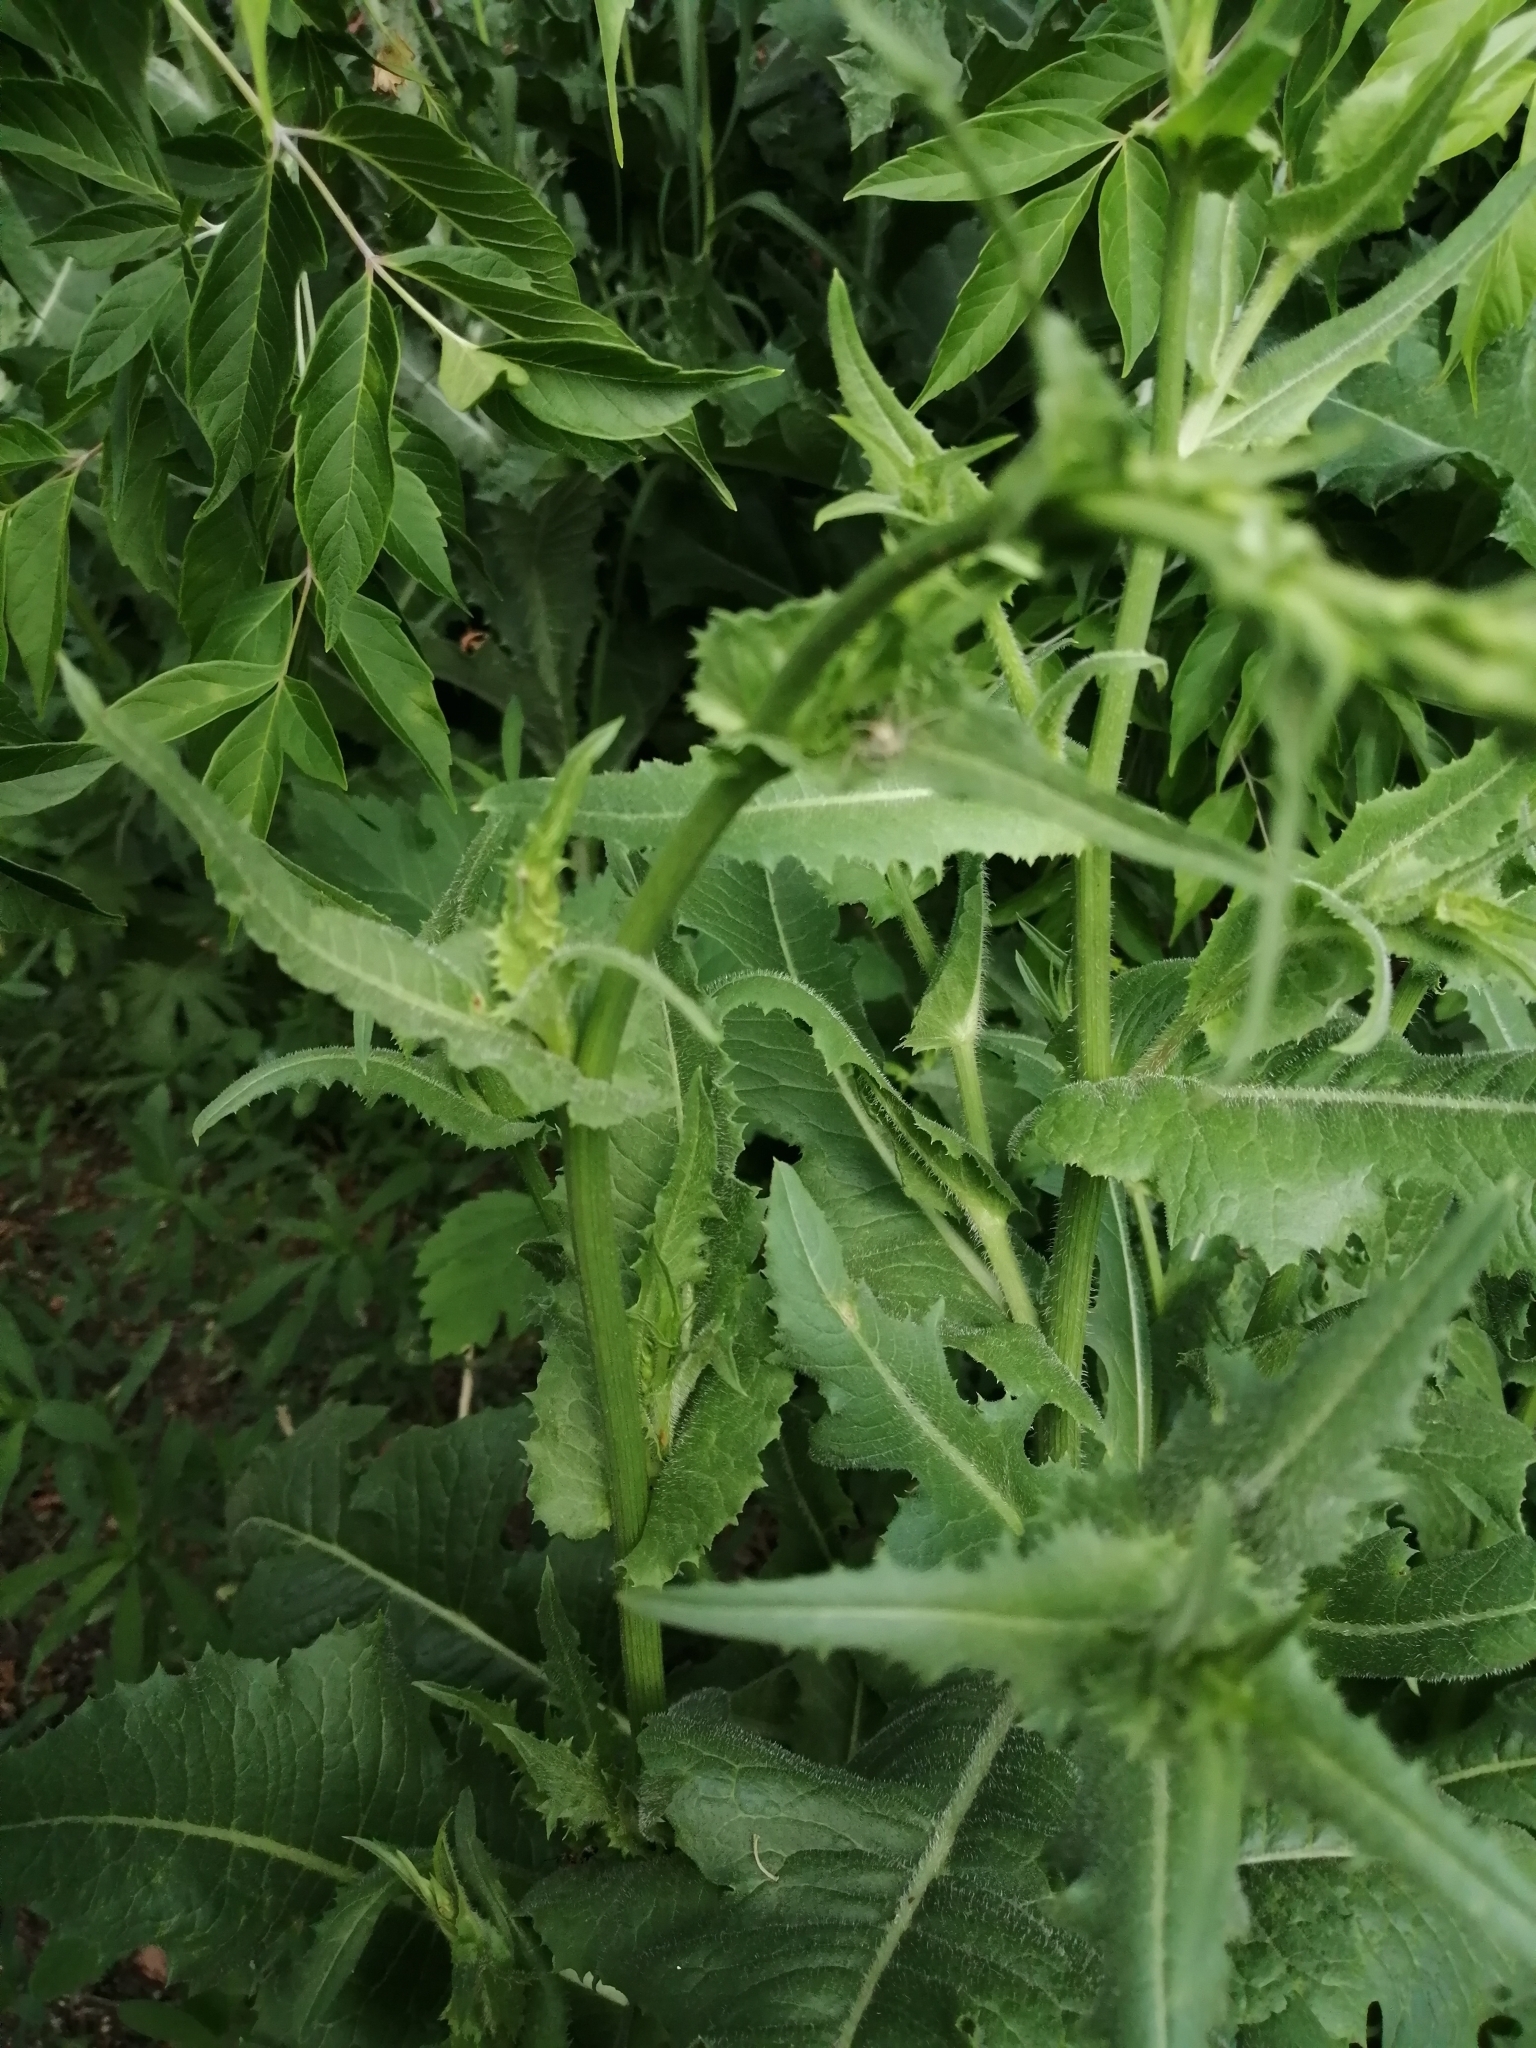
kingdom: Plantae
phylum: Tracheophyta
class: Magnoliopsida
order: Asterales
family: Asteraceae
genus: Cichorium
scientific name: Cichorium intybus
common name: Chicory
